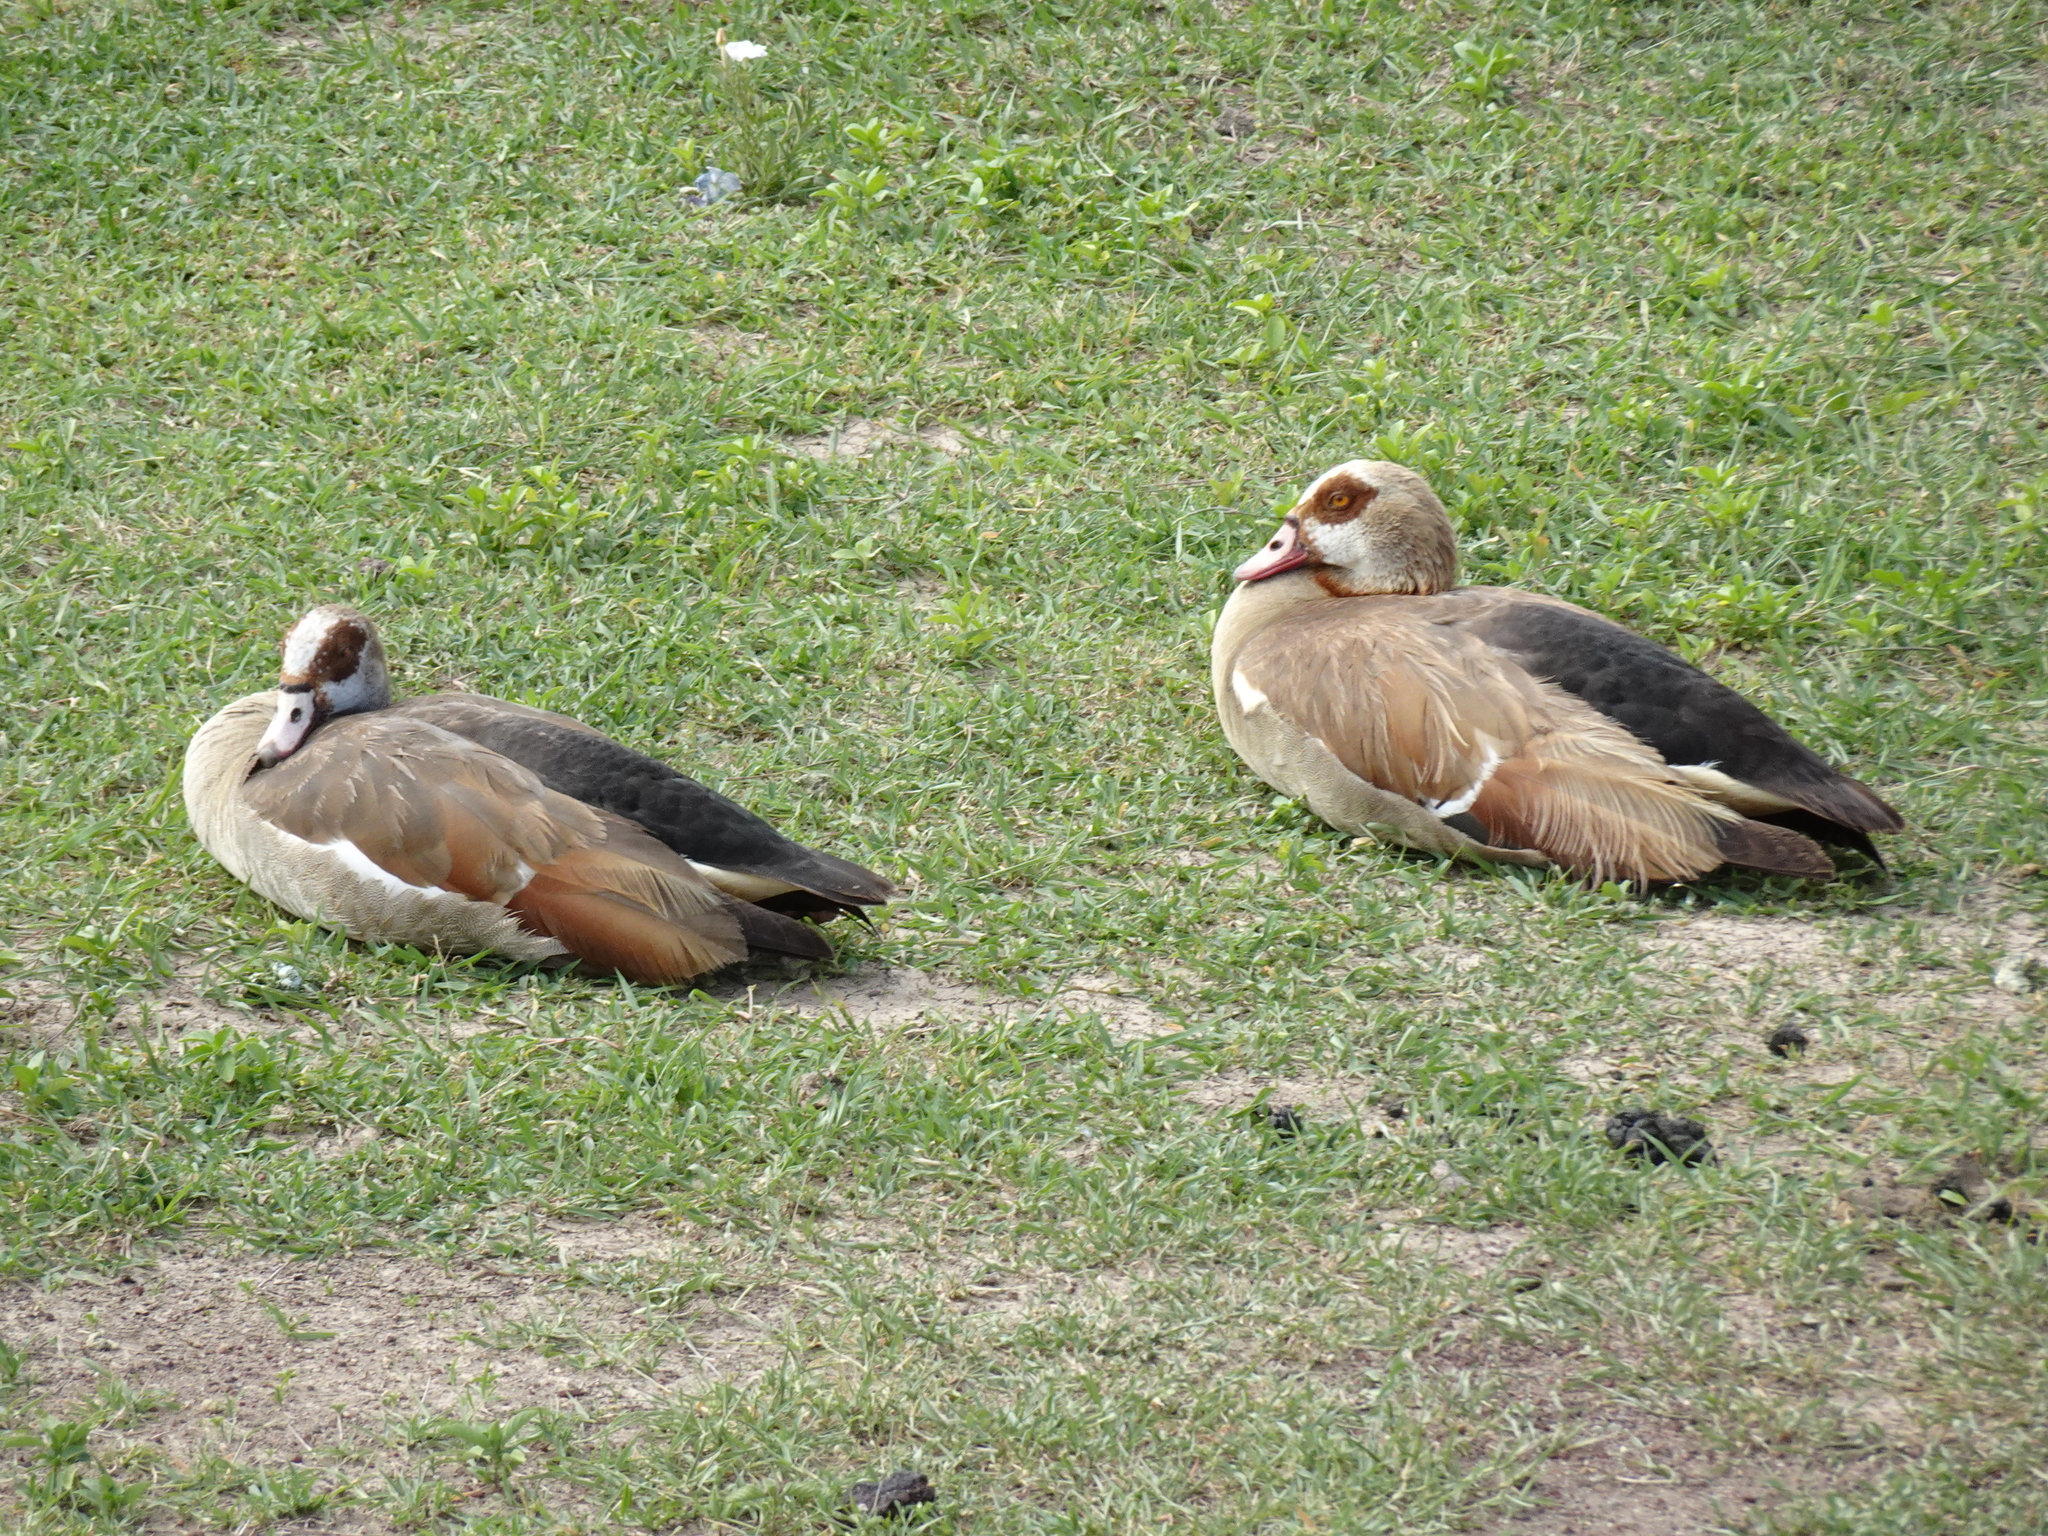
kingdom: Animalia
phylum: Chordata
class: Aves
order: Anseriformes
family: Anatidae
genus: Alopochen
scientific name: Alopochen aegyptiaca
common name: Egyptian goose
